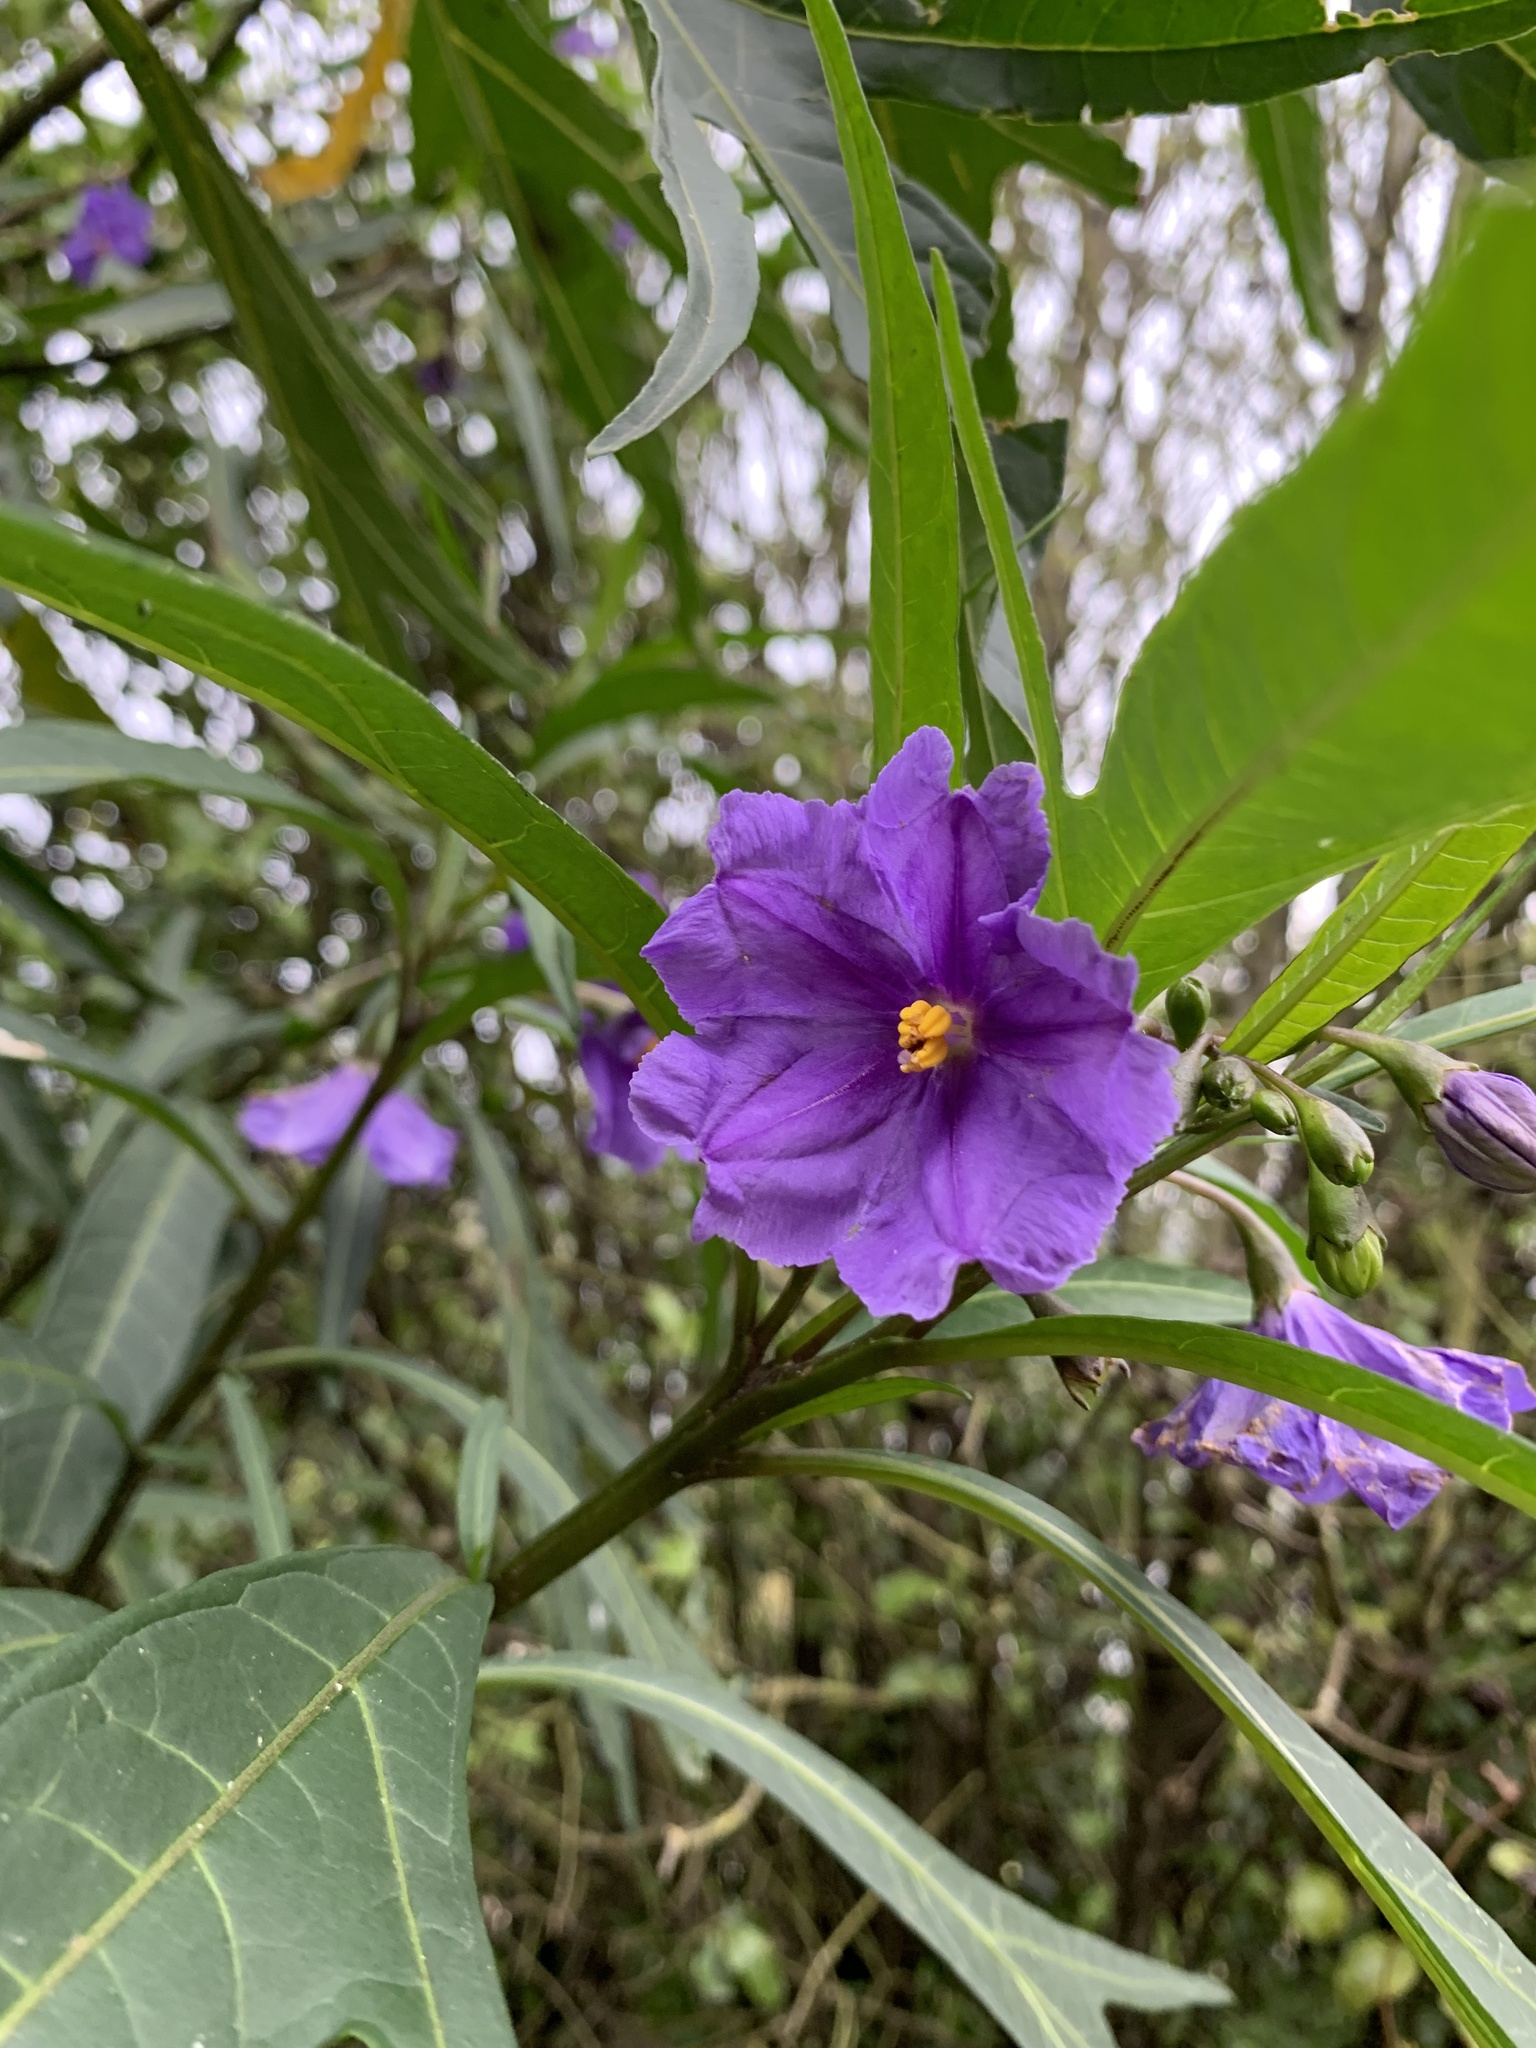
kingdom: Plantae
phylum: Tracheophyta
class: Magnoliopsida
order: Solanales
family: Solanaceae
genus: Solanum
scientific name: Solanum laciniatum
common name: Kangaroo-apple
